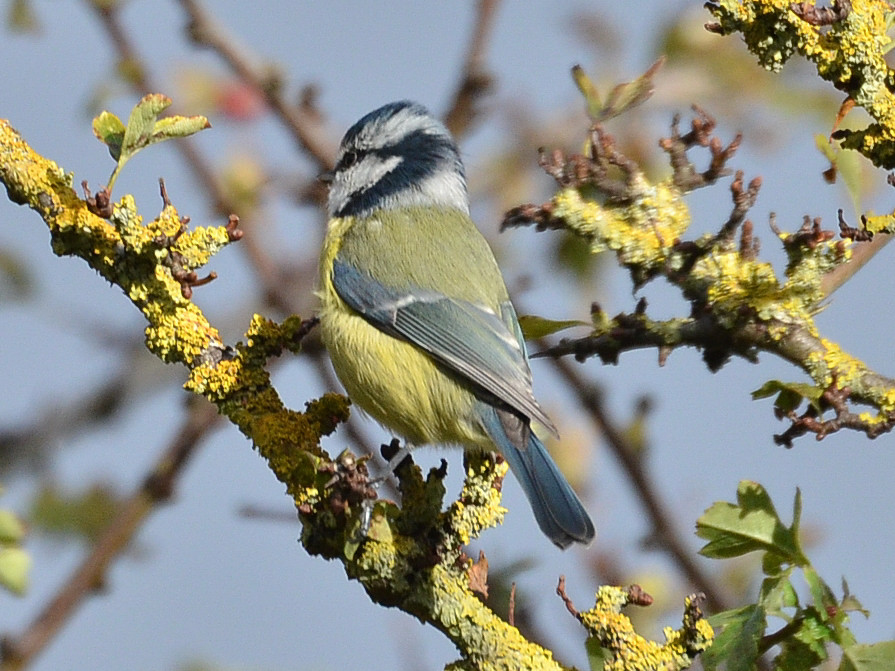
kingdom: Animalia
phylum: Chordata
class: Aves
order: Passeriformes
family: Paridae
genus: Cyanistes
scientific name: Cyanistes caeruleus
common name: Eurasian blue tit
